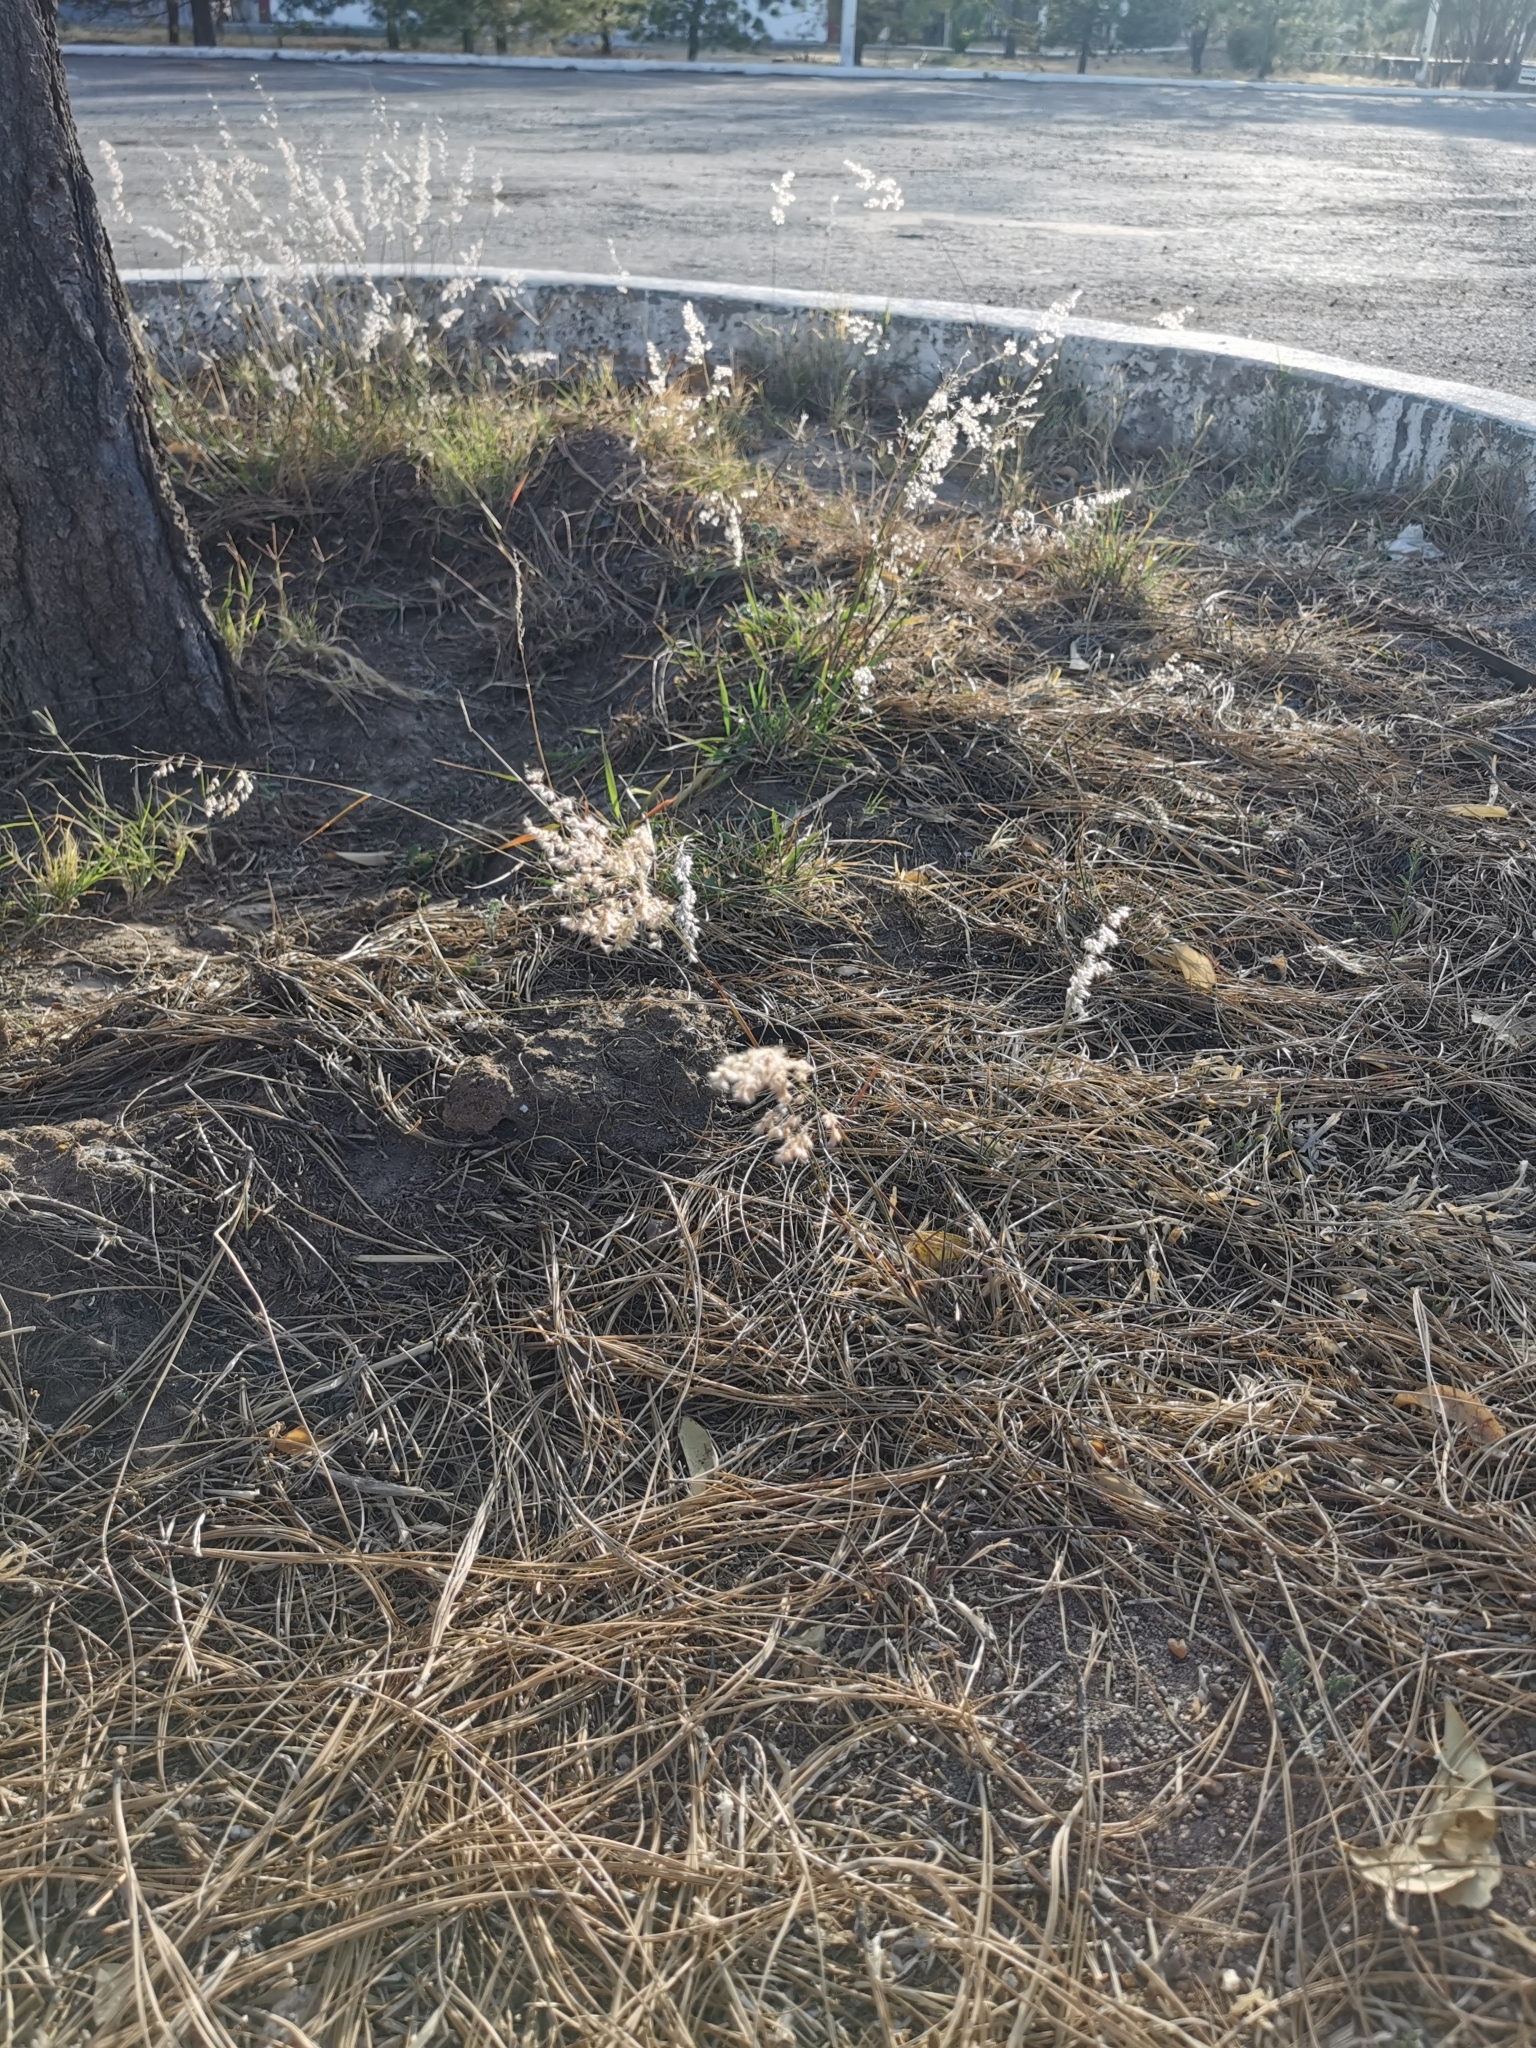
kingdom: Plantae
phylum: Tracheophyta
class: Liliopsida
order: Poales
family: Poaceae
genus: Melinis
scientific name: Melinis repens
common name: Rose natal grass
